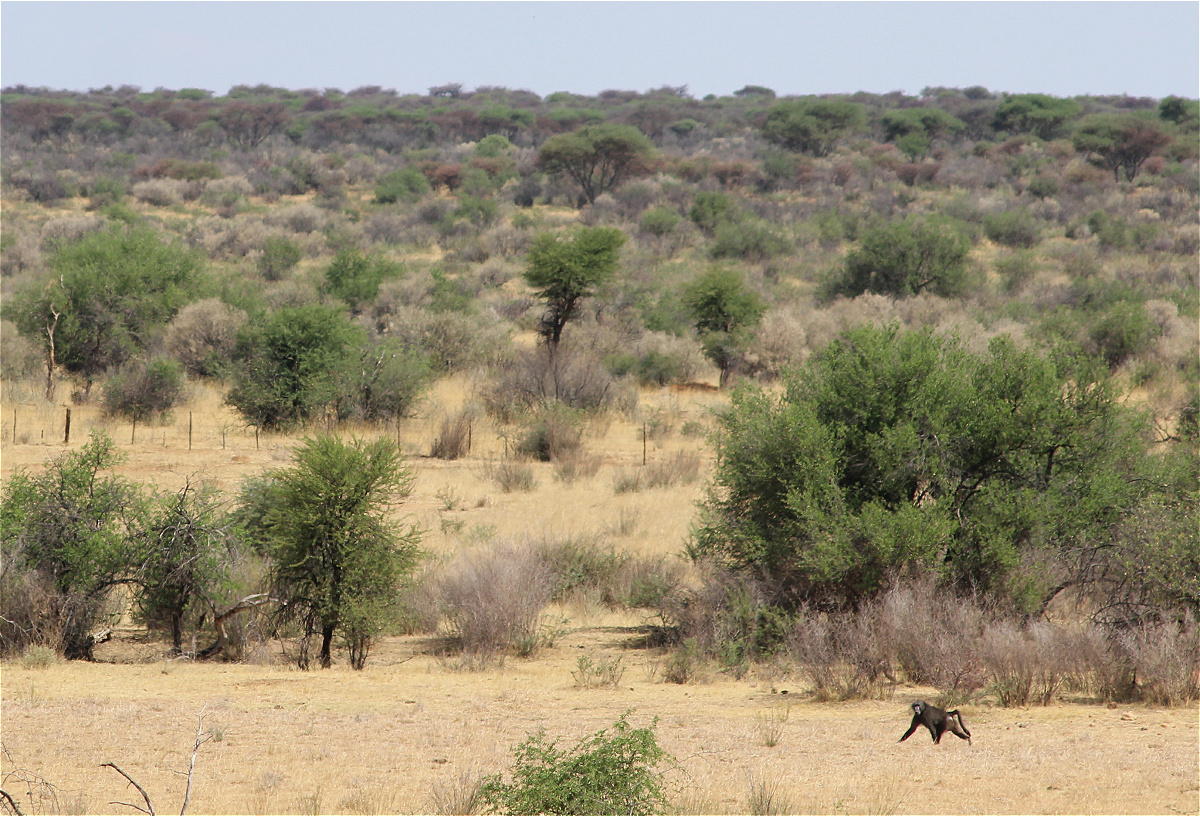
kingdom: Animalia
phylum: Chordata
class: Mammalia
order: Primates
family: Cercopithecidae
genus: Papio
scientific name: Papio ursinus
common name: Chacma baboon
